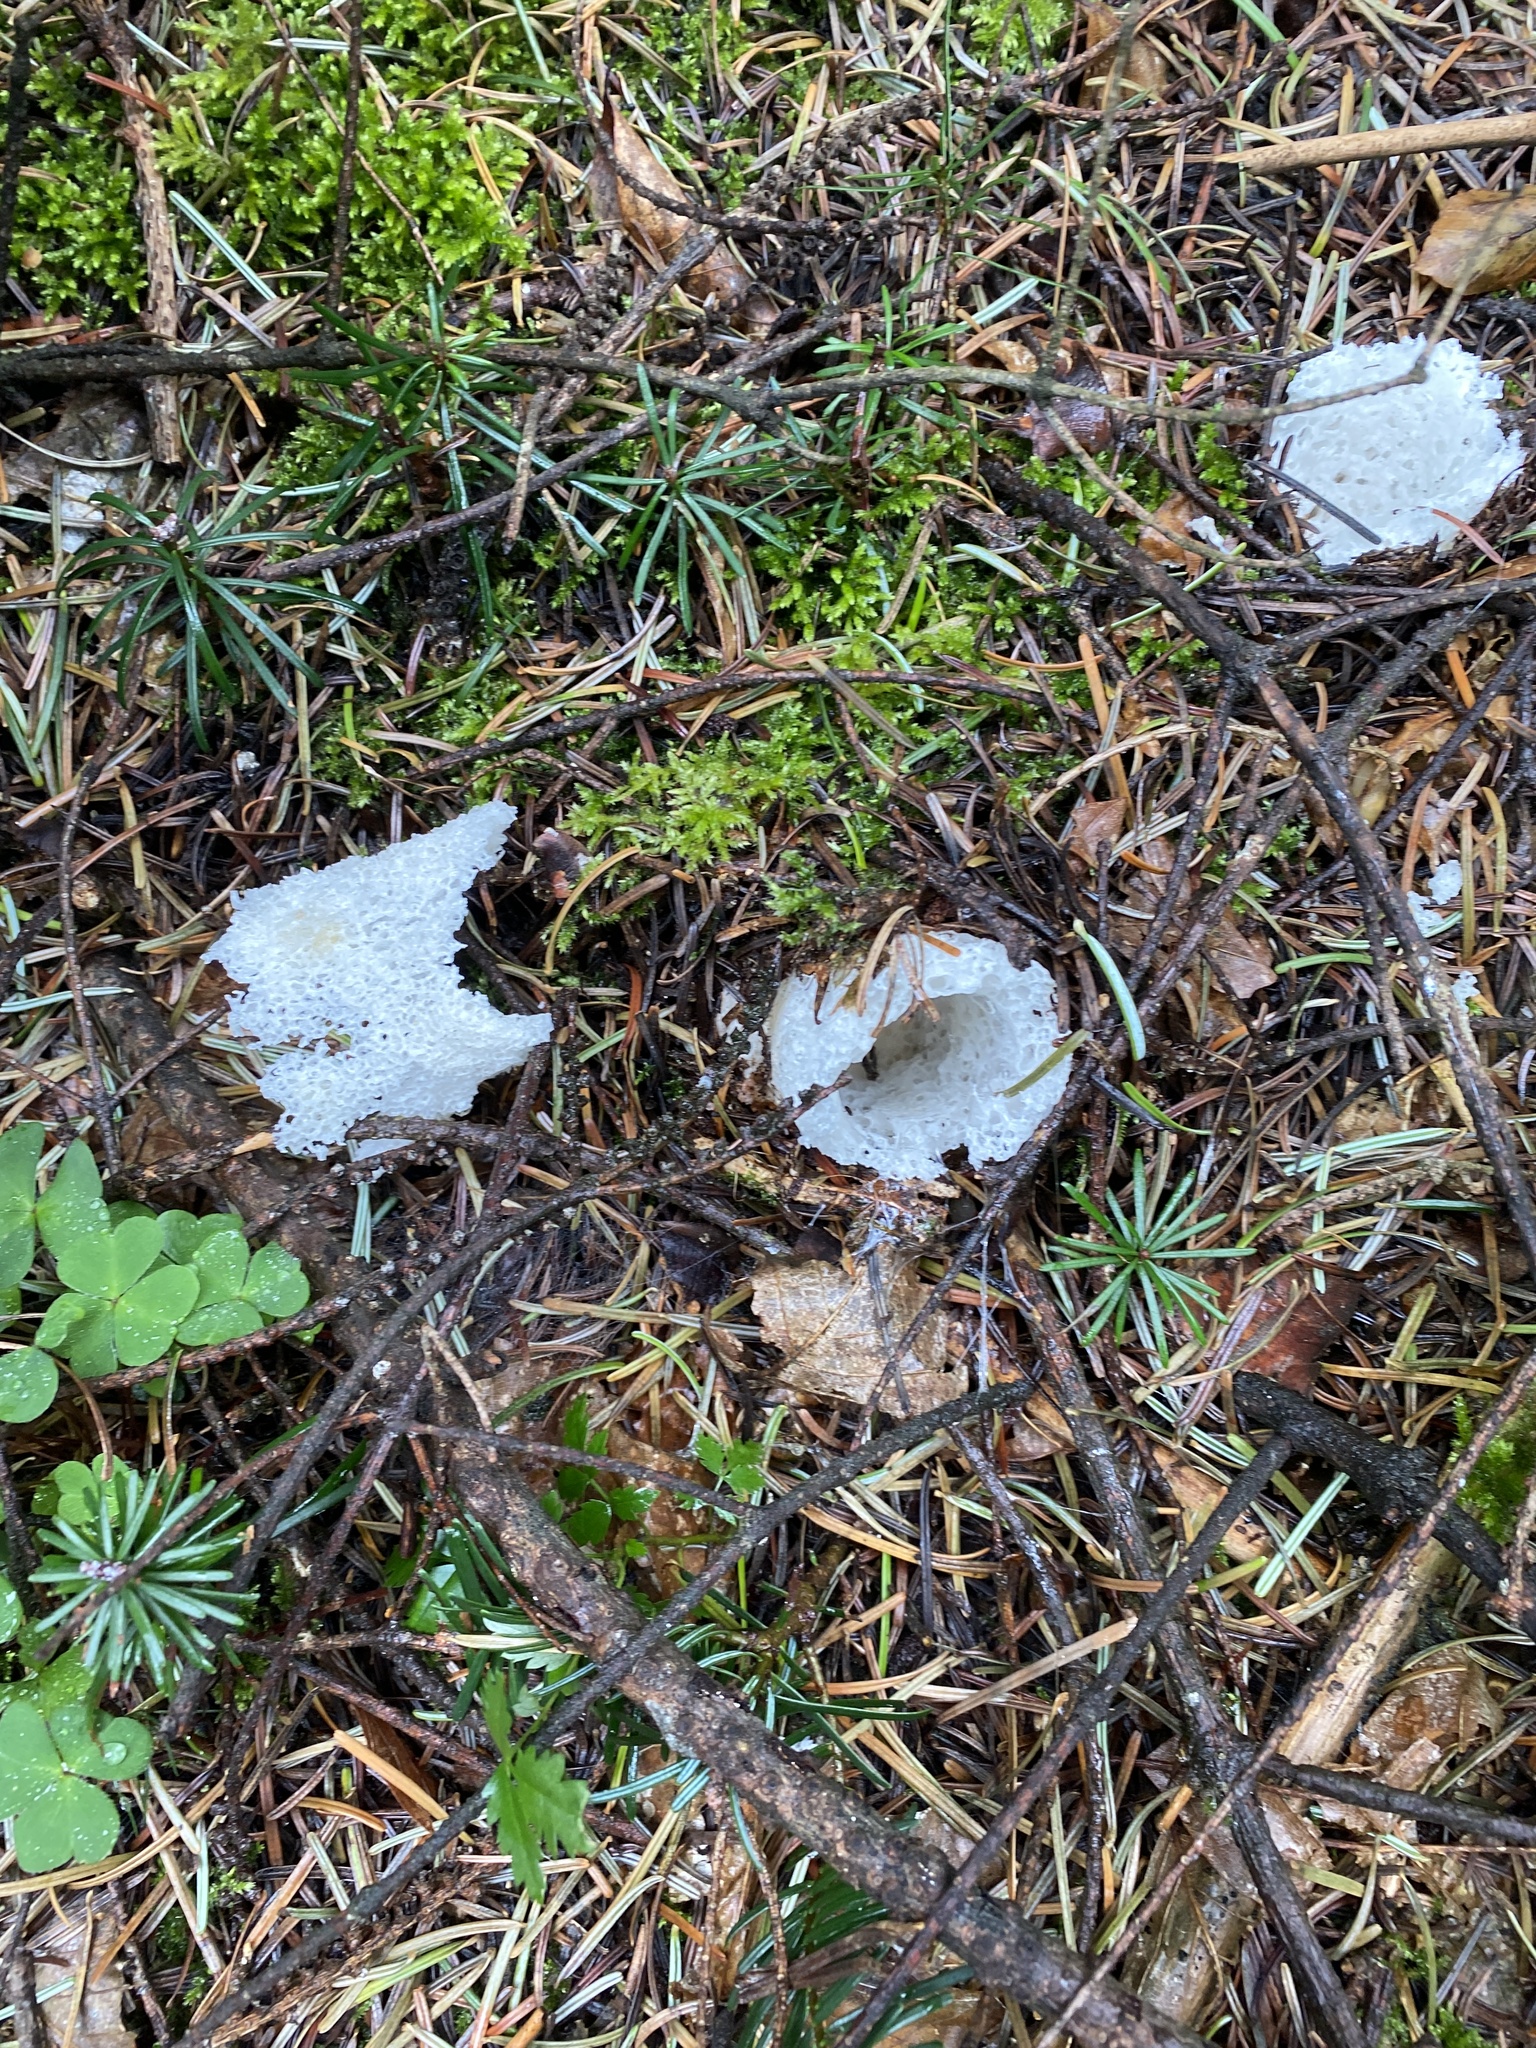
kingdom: Fungi
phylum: Basidiomycota
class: Agaricomycetes
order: Phallales
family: Phallaceae
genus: Phallus
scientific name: Phallus impudicus
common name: Common stinkhorn
